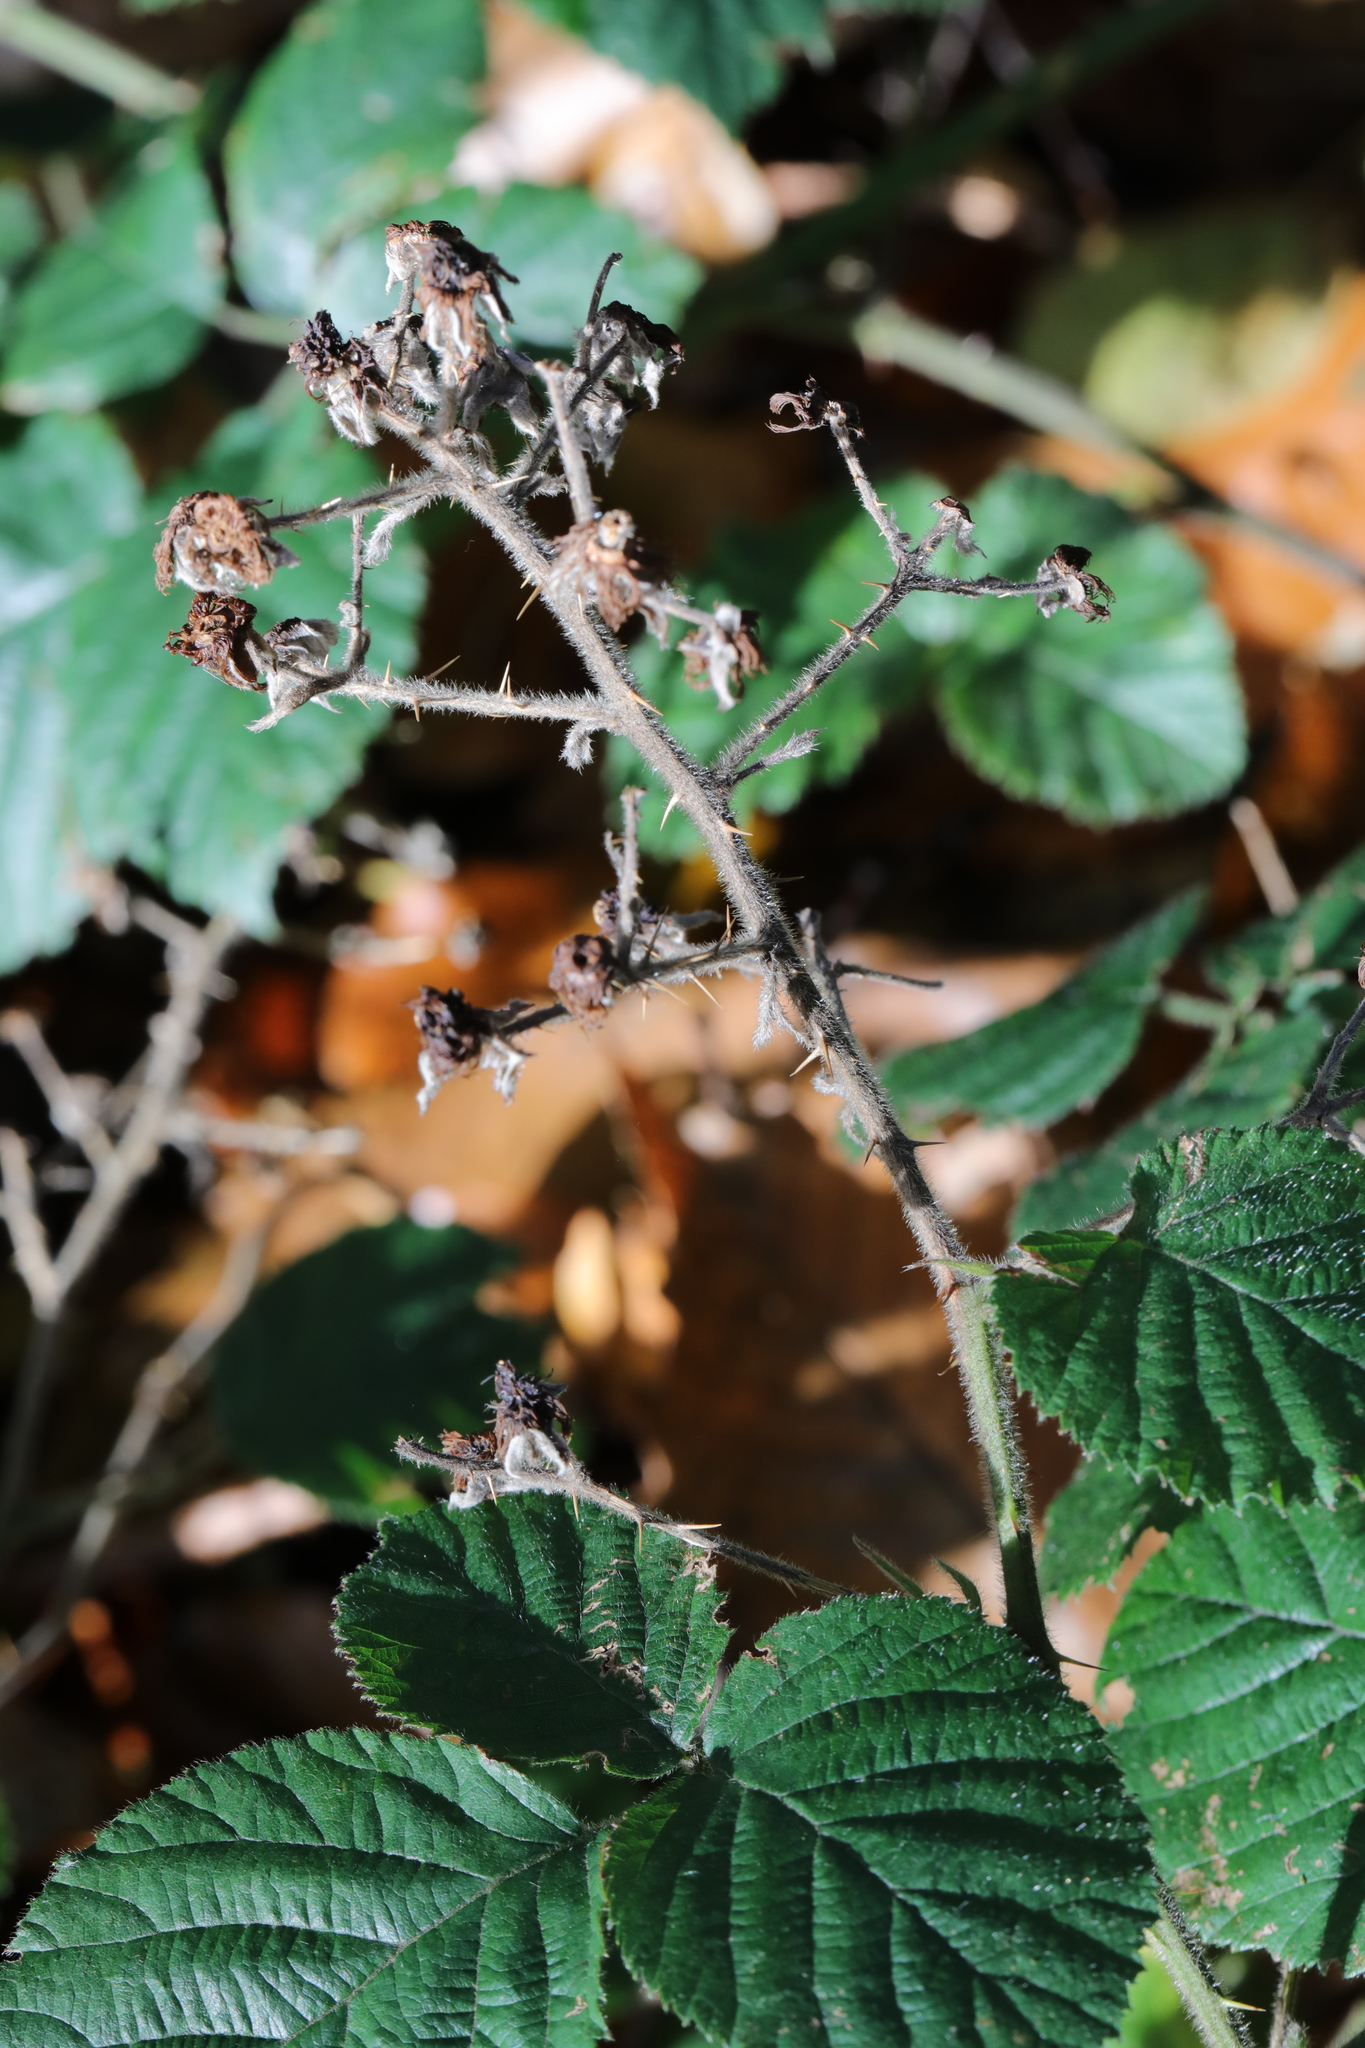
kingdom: Plantae
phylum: Tracheophyta
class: Magnoliopsida
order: Rosales
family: Rosaceae
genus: Rubus
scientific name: Rubus vestitus
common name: European blackberry
